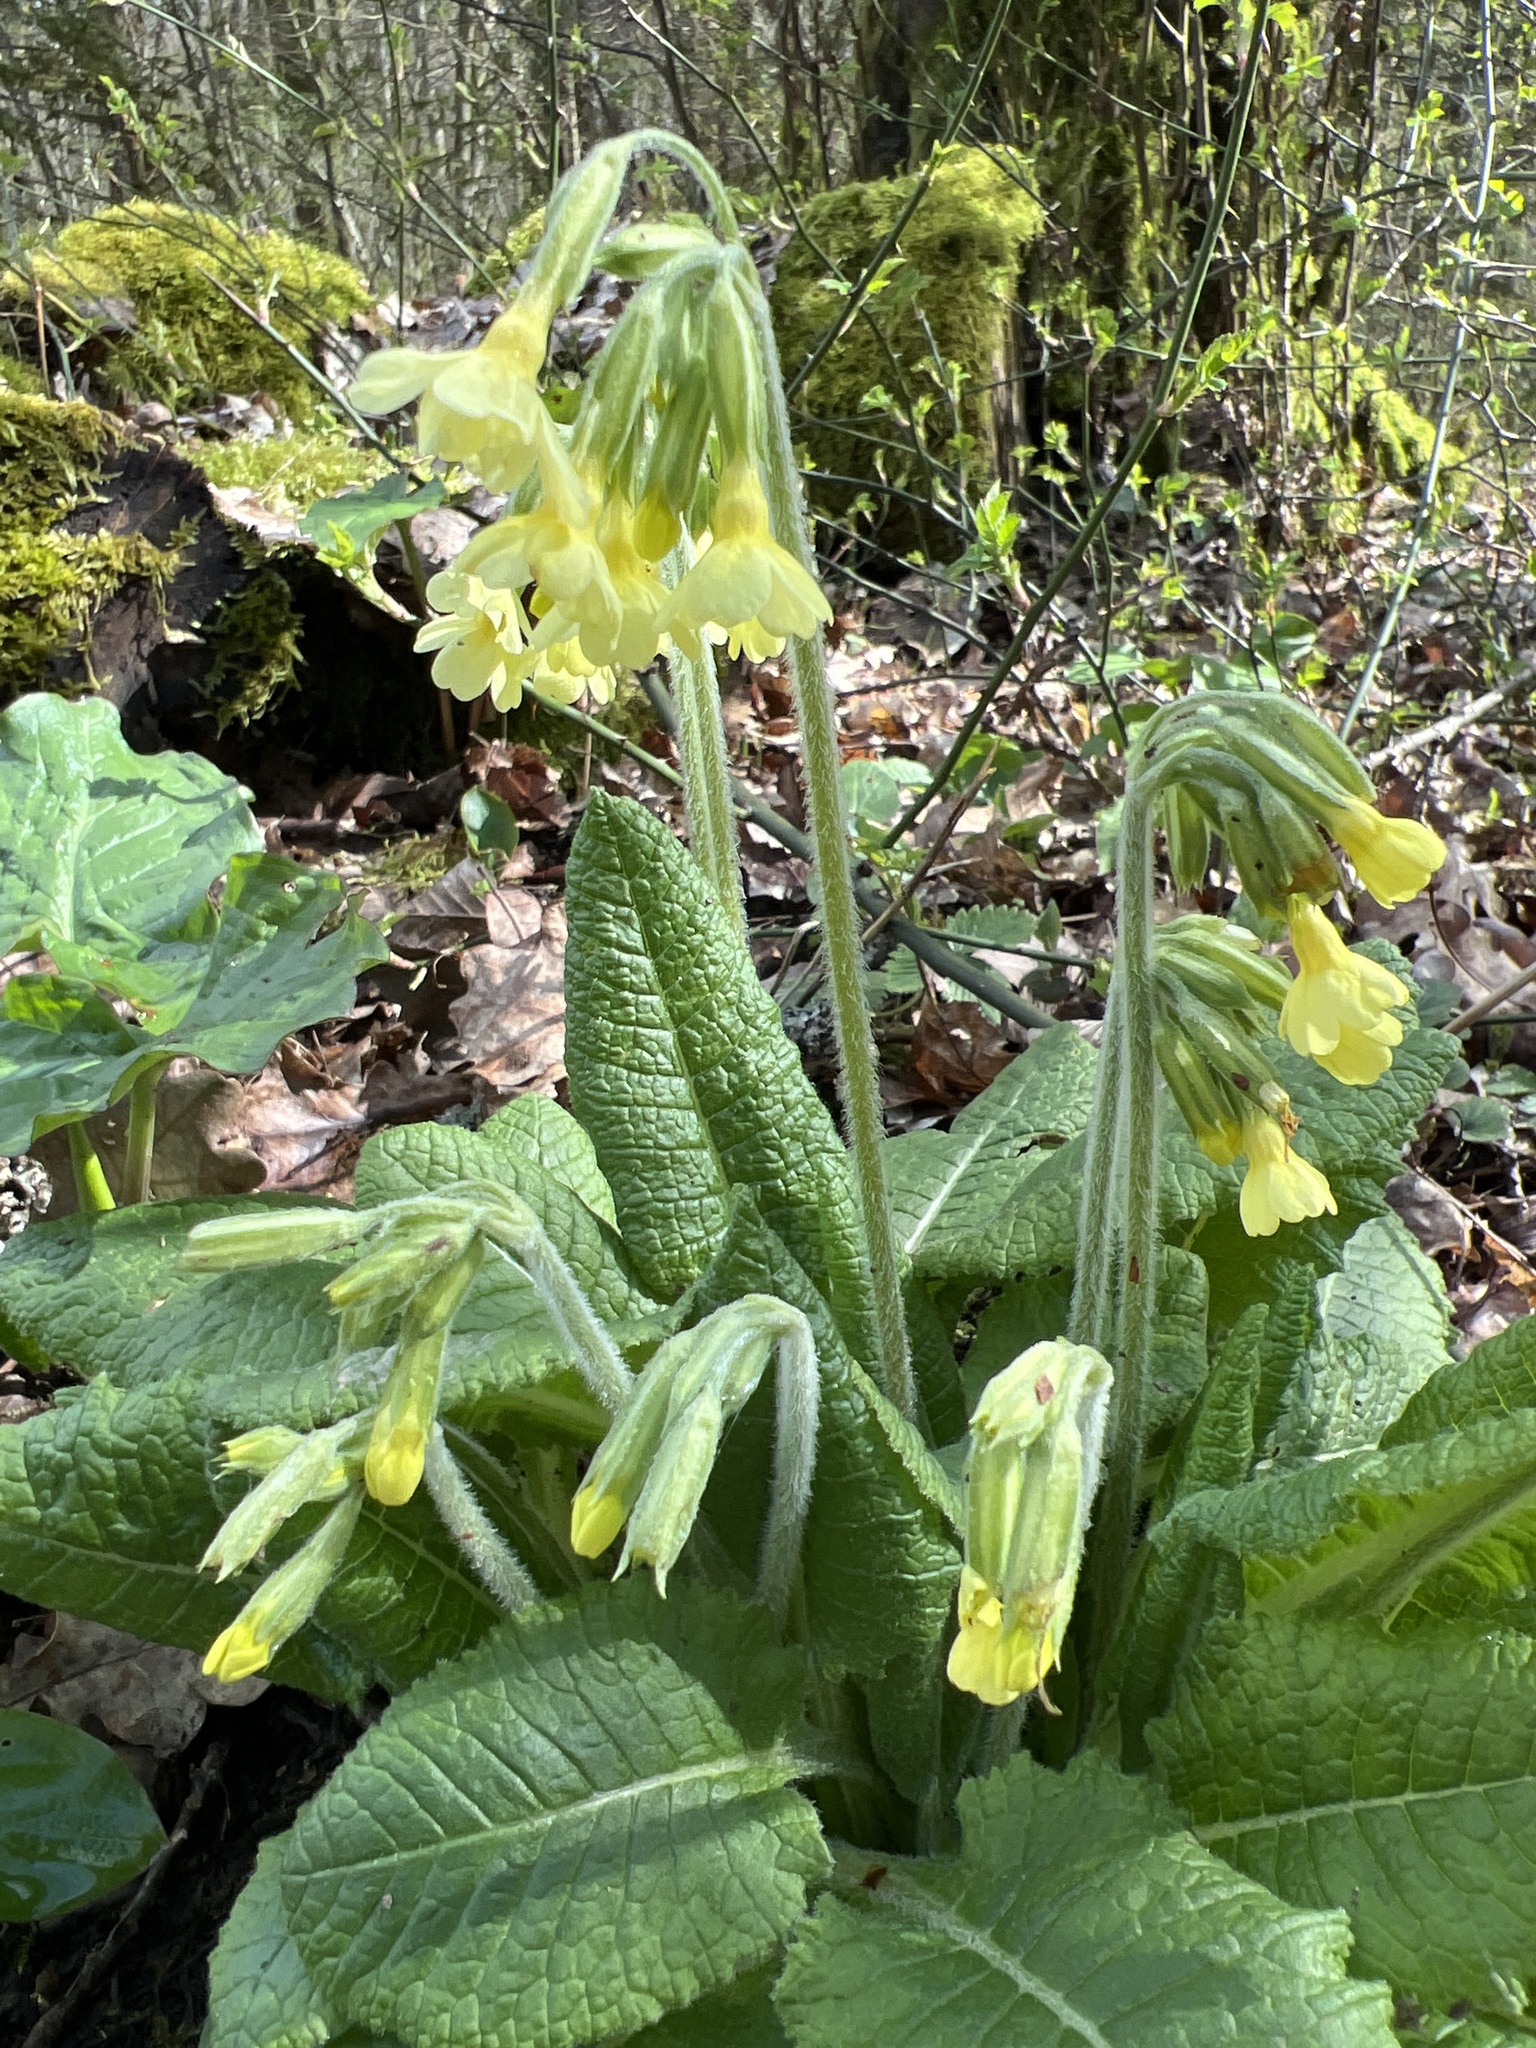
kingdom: Plantae
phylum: Tracheophyta
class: Magnoliopsida
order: Ericales
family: Primulaceae
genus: Primula
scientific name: Primula elatior
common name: Oxlip
